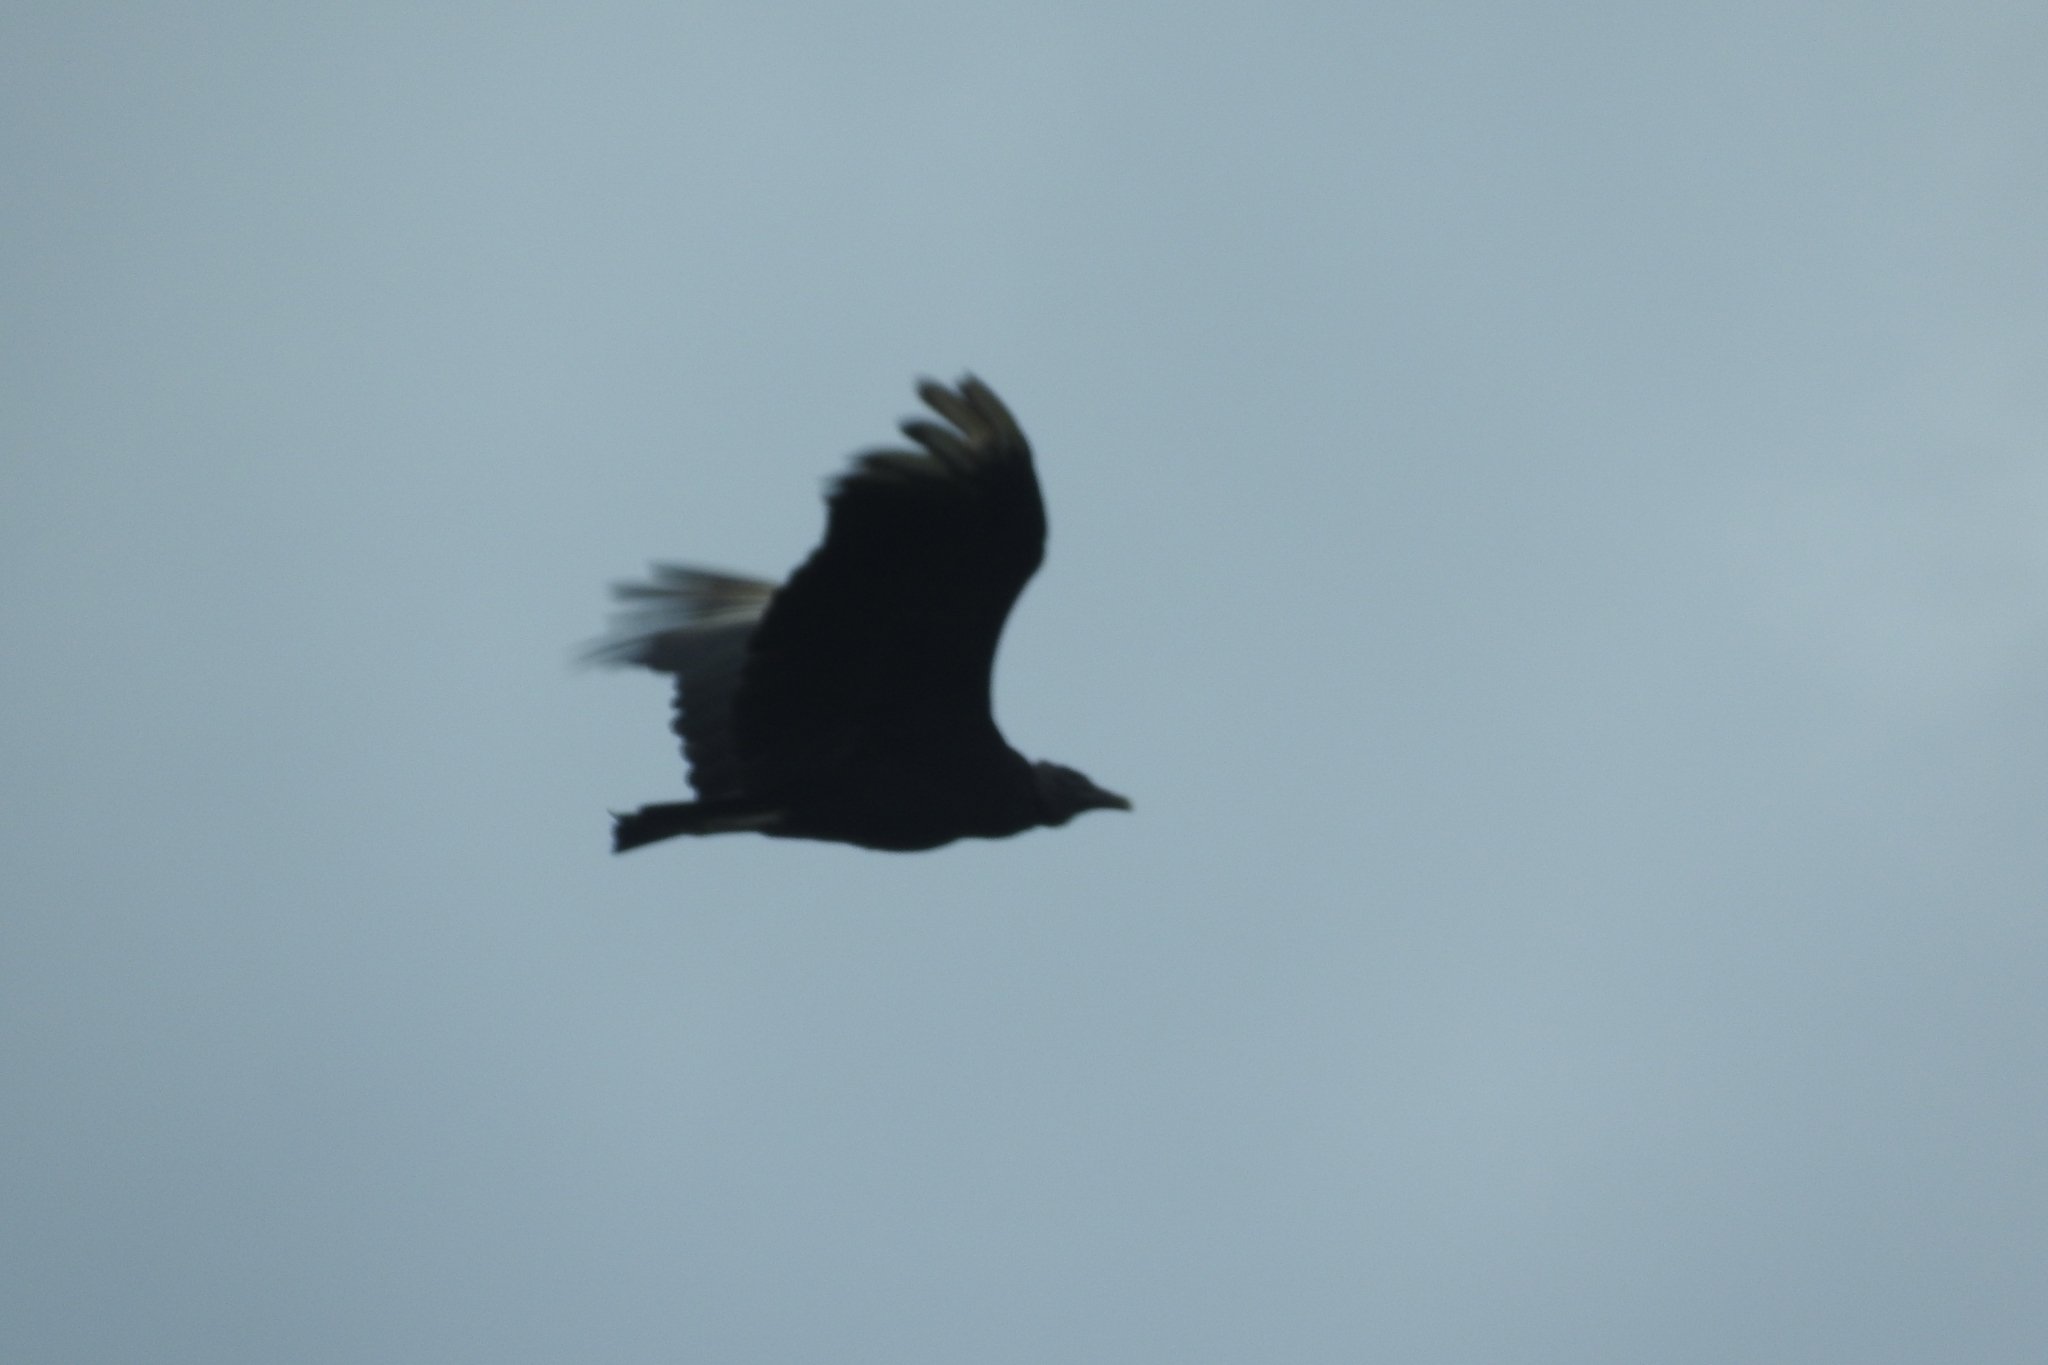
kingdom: Animalia
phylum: Chordata
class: Aves
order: Accipitriformes
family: Cathartidae
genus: Coragyps
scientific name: Coragyps atratus
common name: Black vulture
